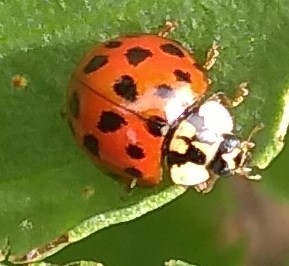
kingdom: Animalia
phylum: Arthropoda
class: Insecta
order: Coleoptera
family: Coccinellidae
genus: Harmonia
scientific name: Harmonia axyridis
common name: Harlequin ladybird
